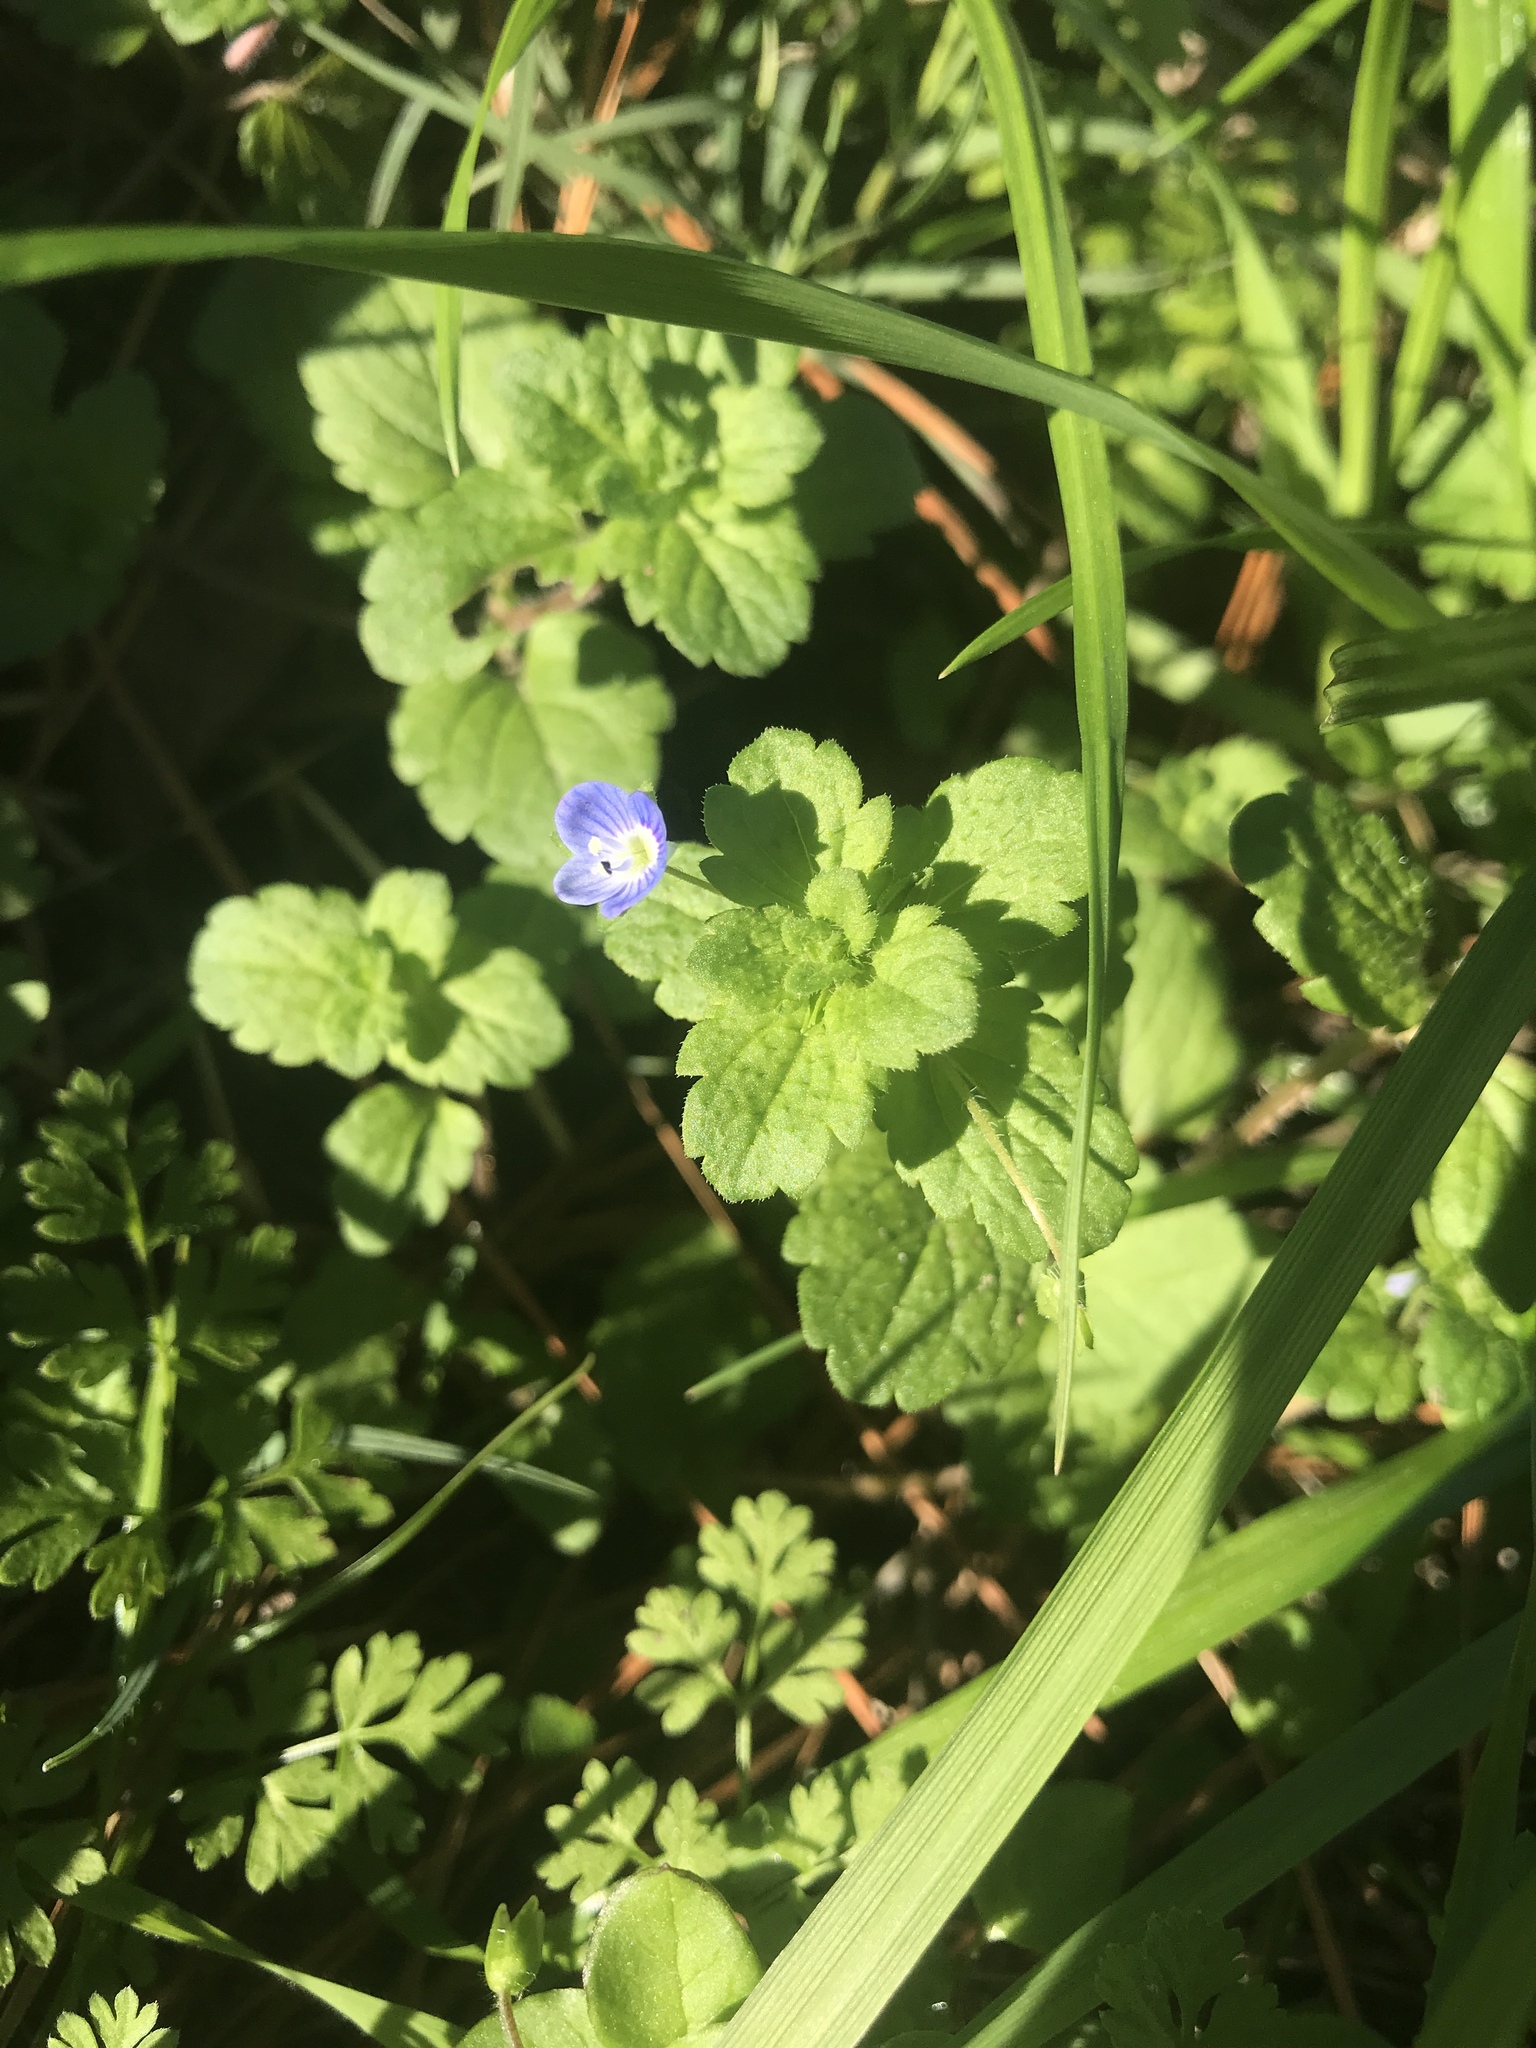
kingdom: Plantae
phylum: Tracheophyta
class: Magnoliopsida
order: Lamiales
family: Plantaginaceae
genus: Veronica
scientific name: Veronica persica
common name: Common field-speedwell
